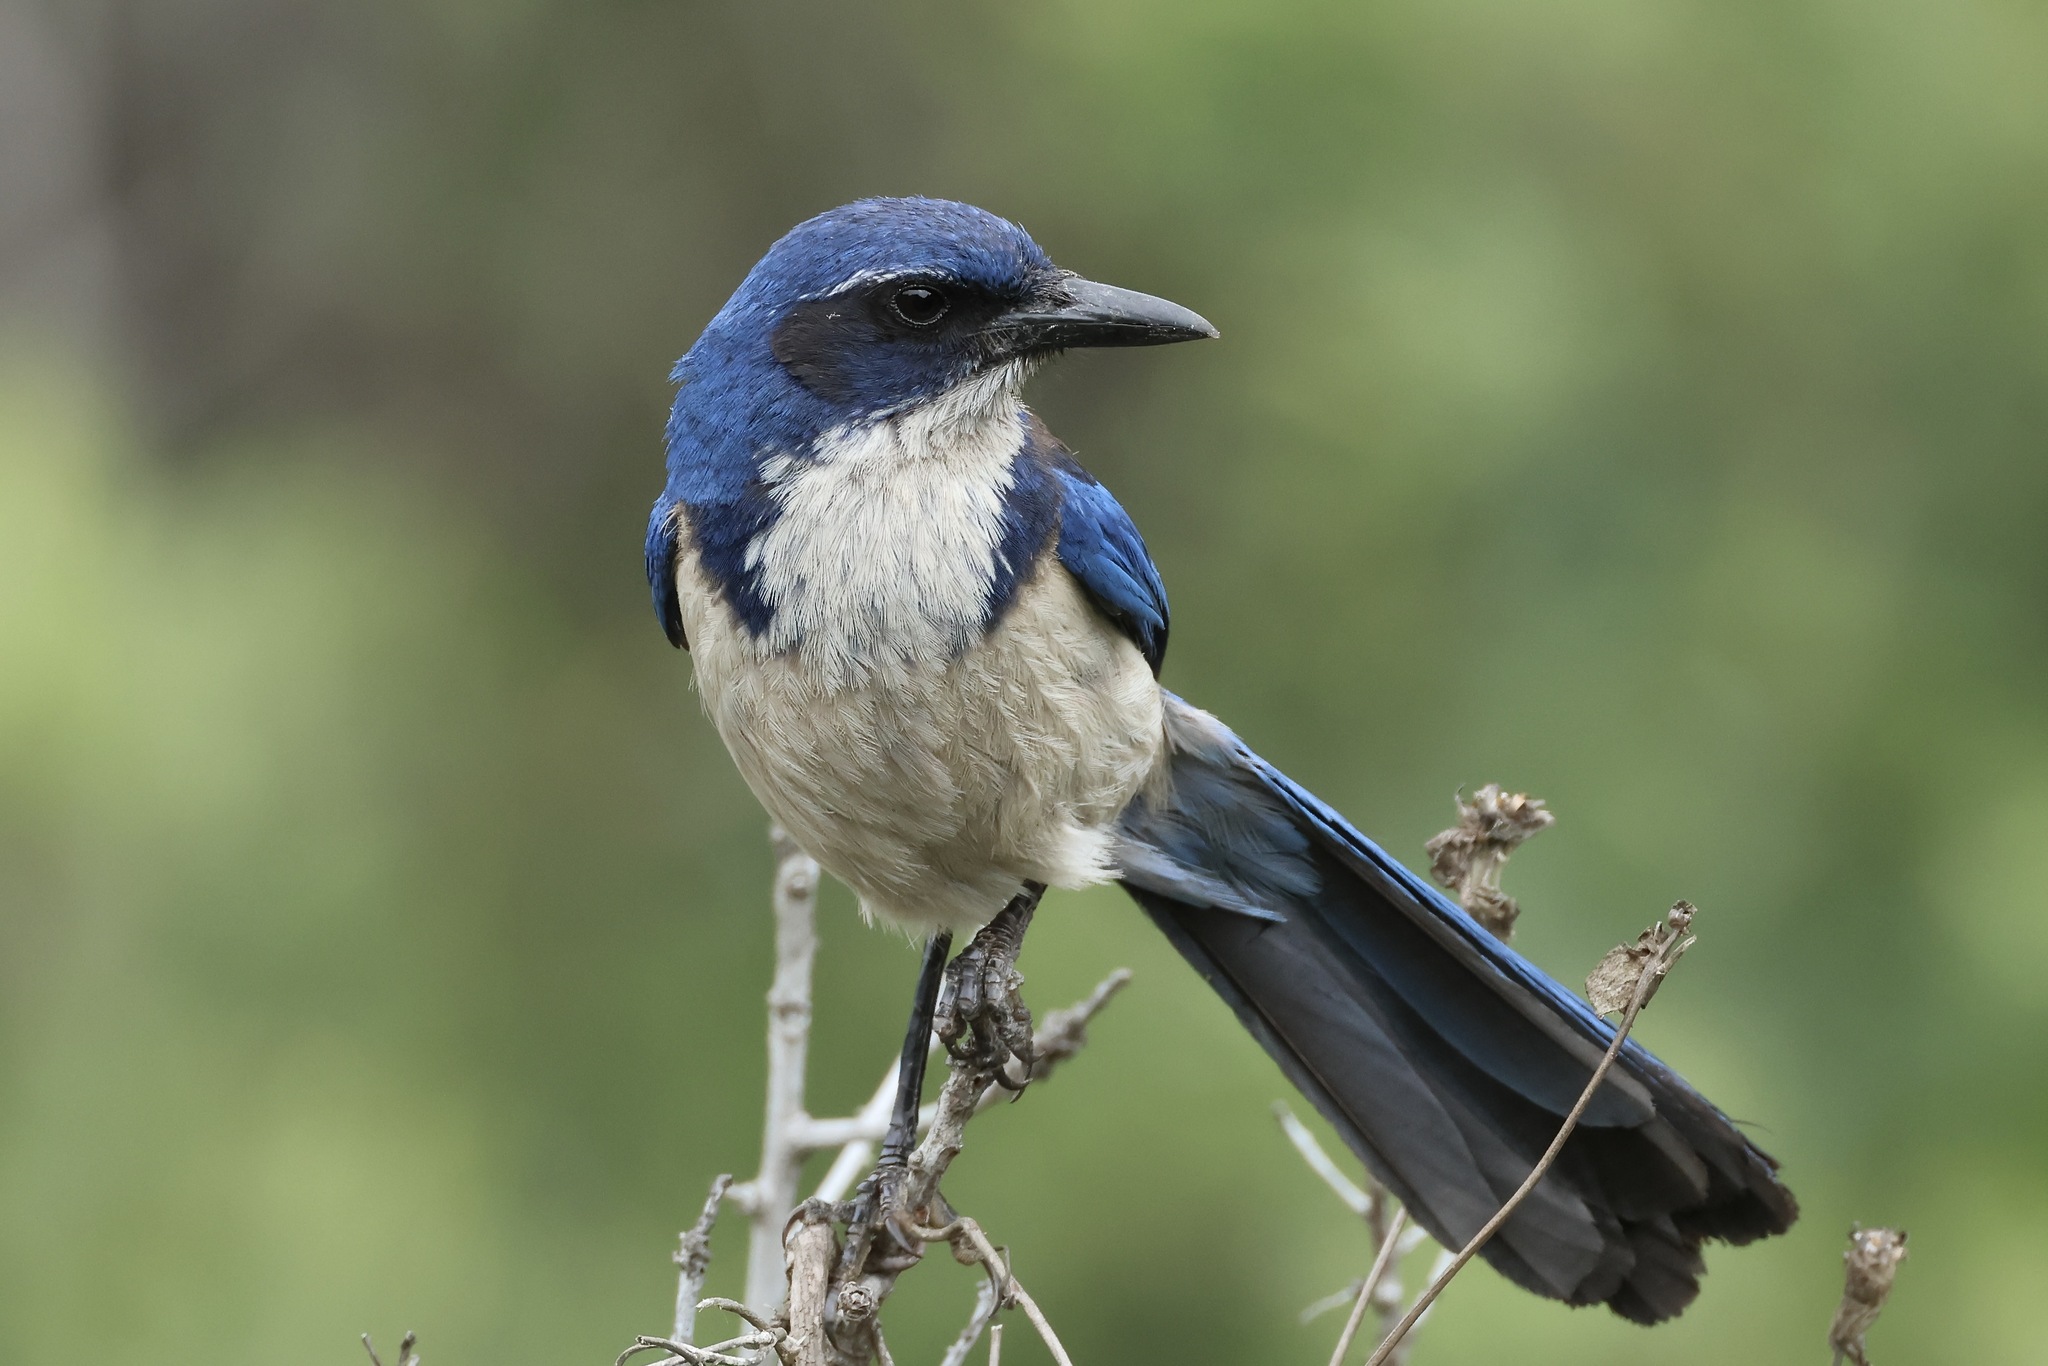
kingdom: Animalia
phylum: Chordata
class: Aves
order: Passeriformes
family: Corvidae
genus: Aphelocoma
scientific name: Aphelocoma insularis
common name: Island scrub-jay
